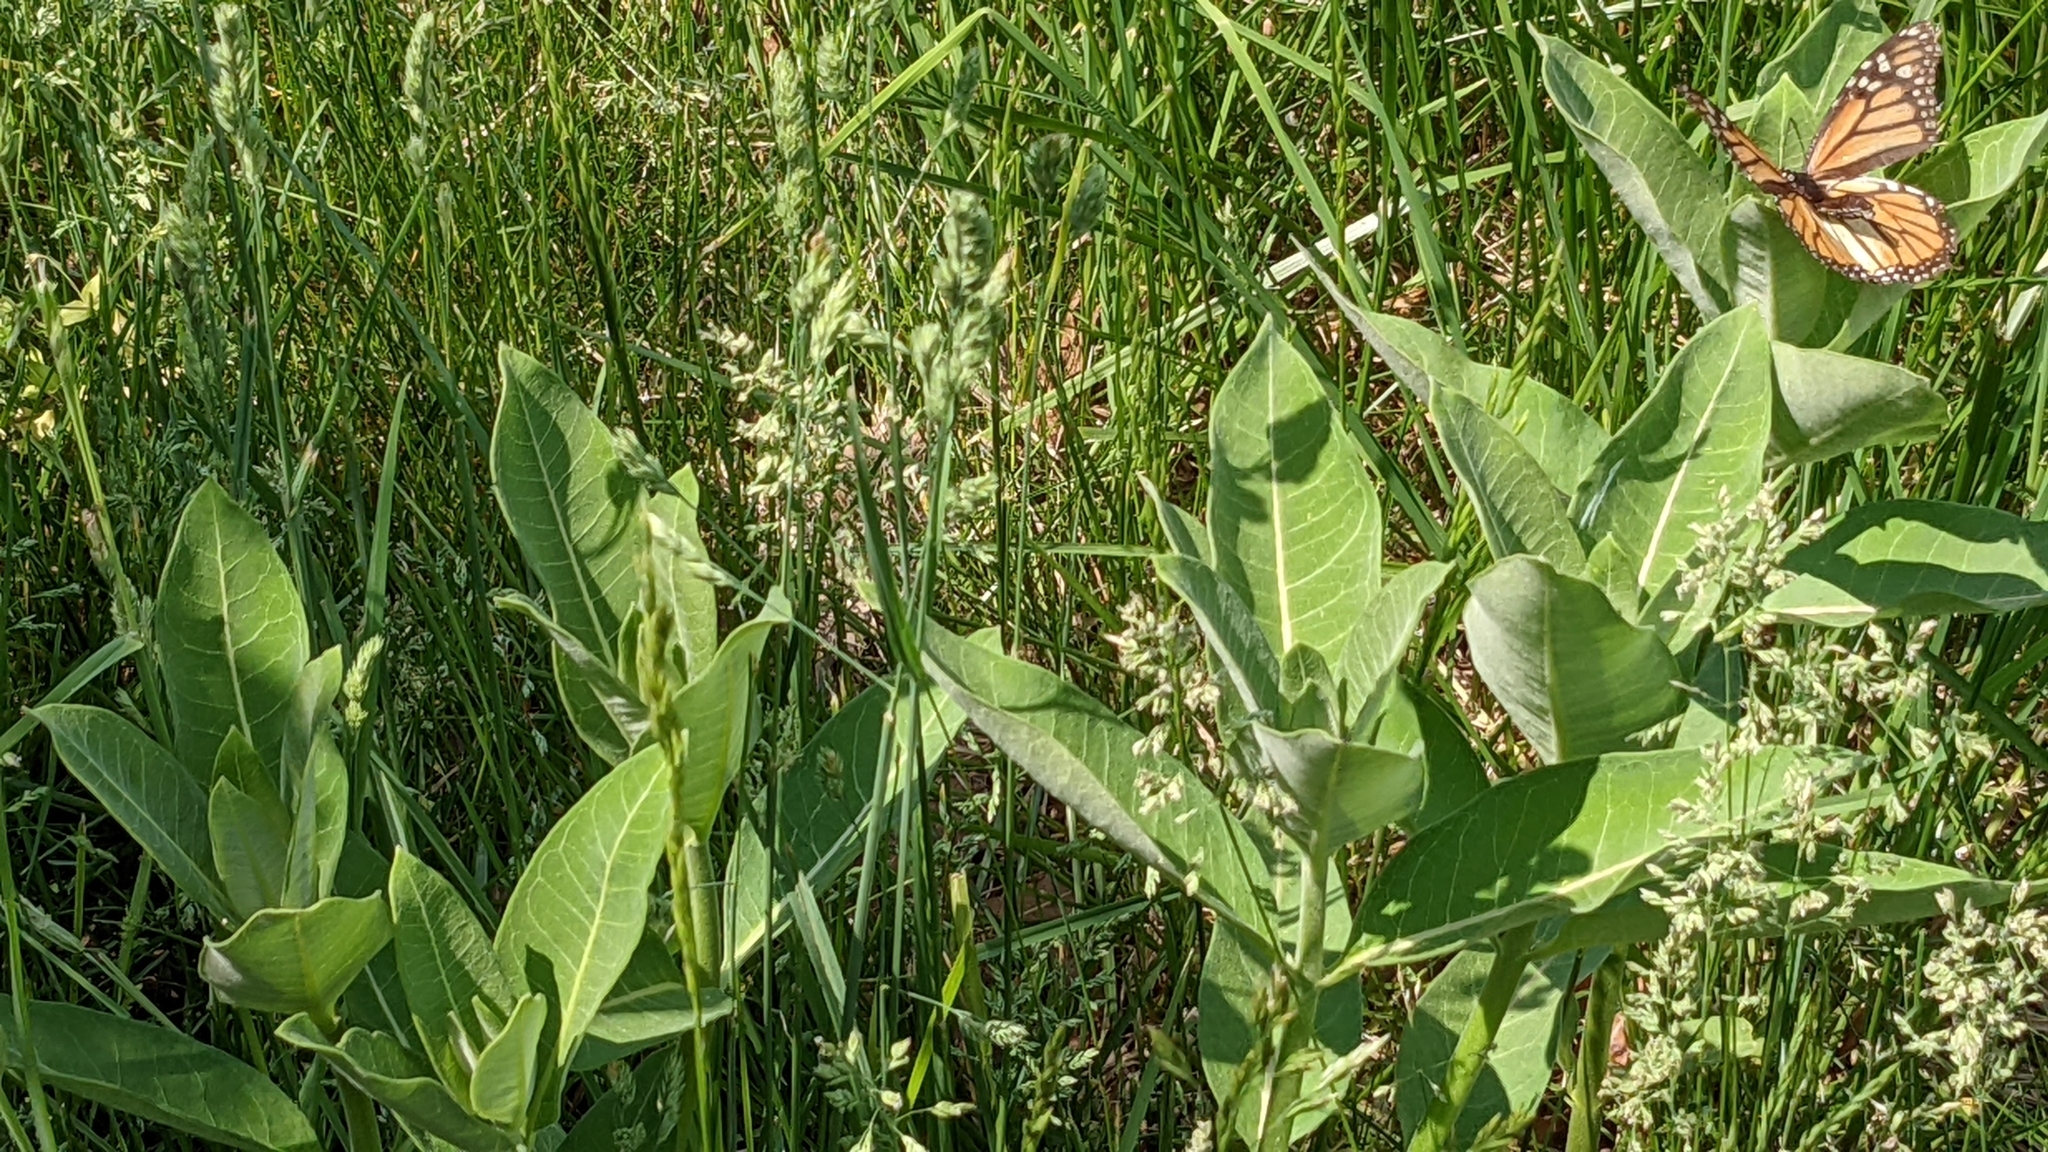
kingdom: Animalia
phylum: Arthropoda
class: Insecta
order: Lepidoptera
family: Nymphalidae
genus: Danaus
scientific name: Danaus plexippus
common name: Monarch
